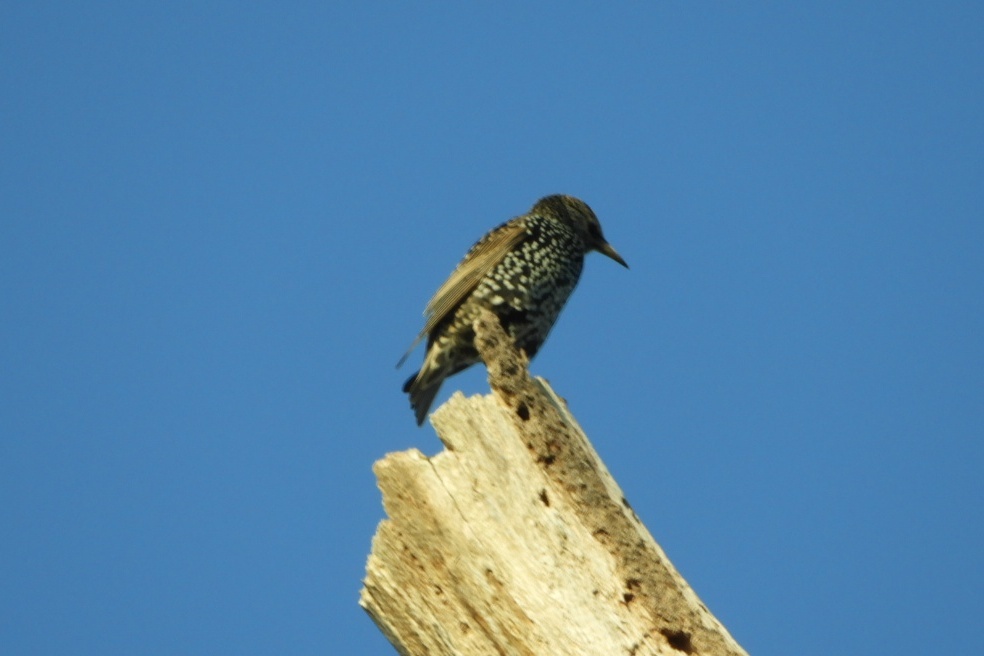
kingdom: Animalia
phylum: Chordata
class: Aves
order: Passeriformes
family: Sturnidae
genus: Sturnus
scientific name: Sturnus vulgaris
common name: Common starling
